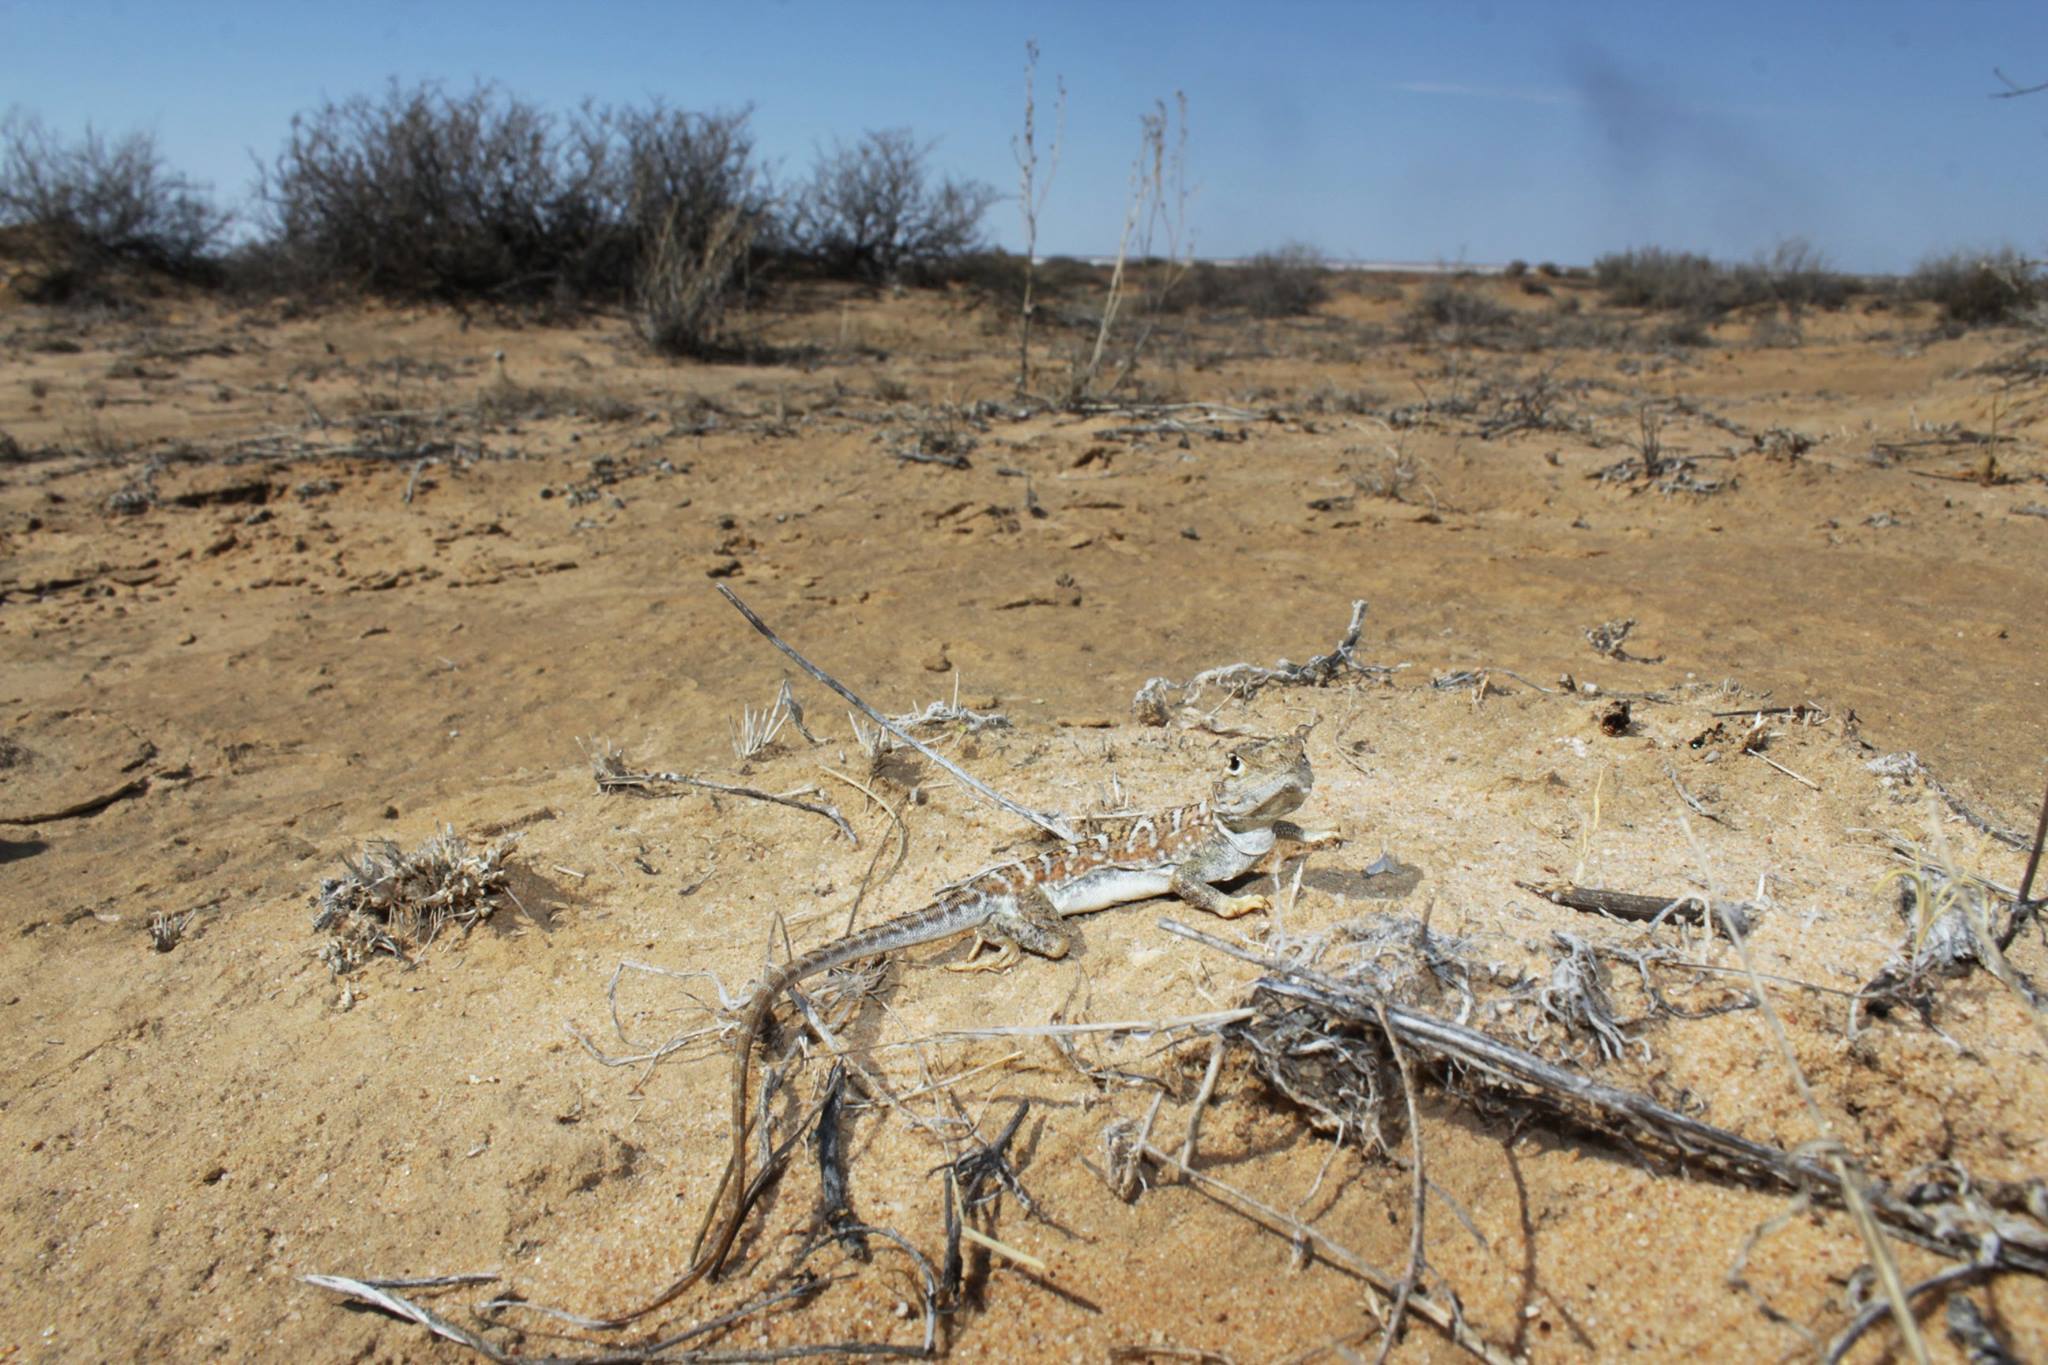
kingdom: Animalia
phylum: Chordata
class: Squamata
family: Agamidae
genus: Ctenophorus
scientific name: Ctenophorus pictus
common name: Painted dragon
